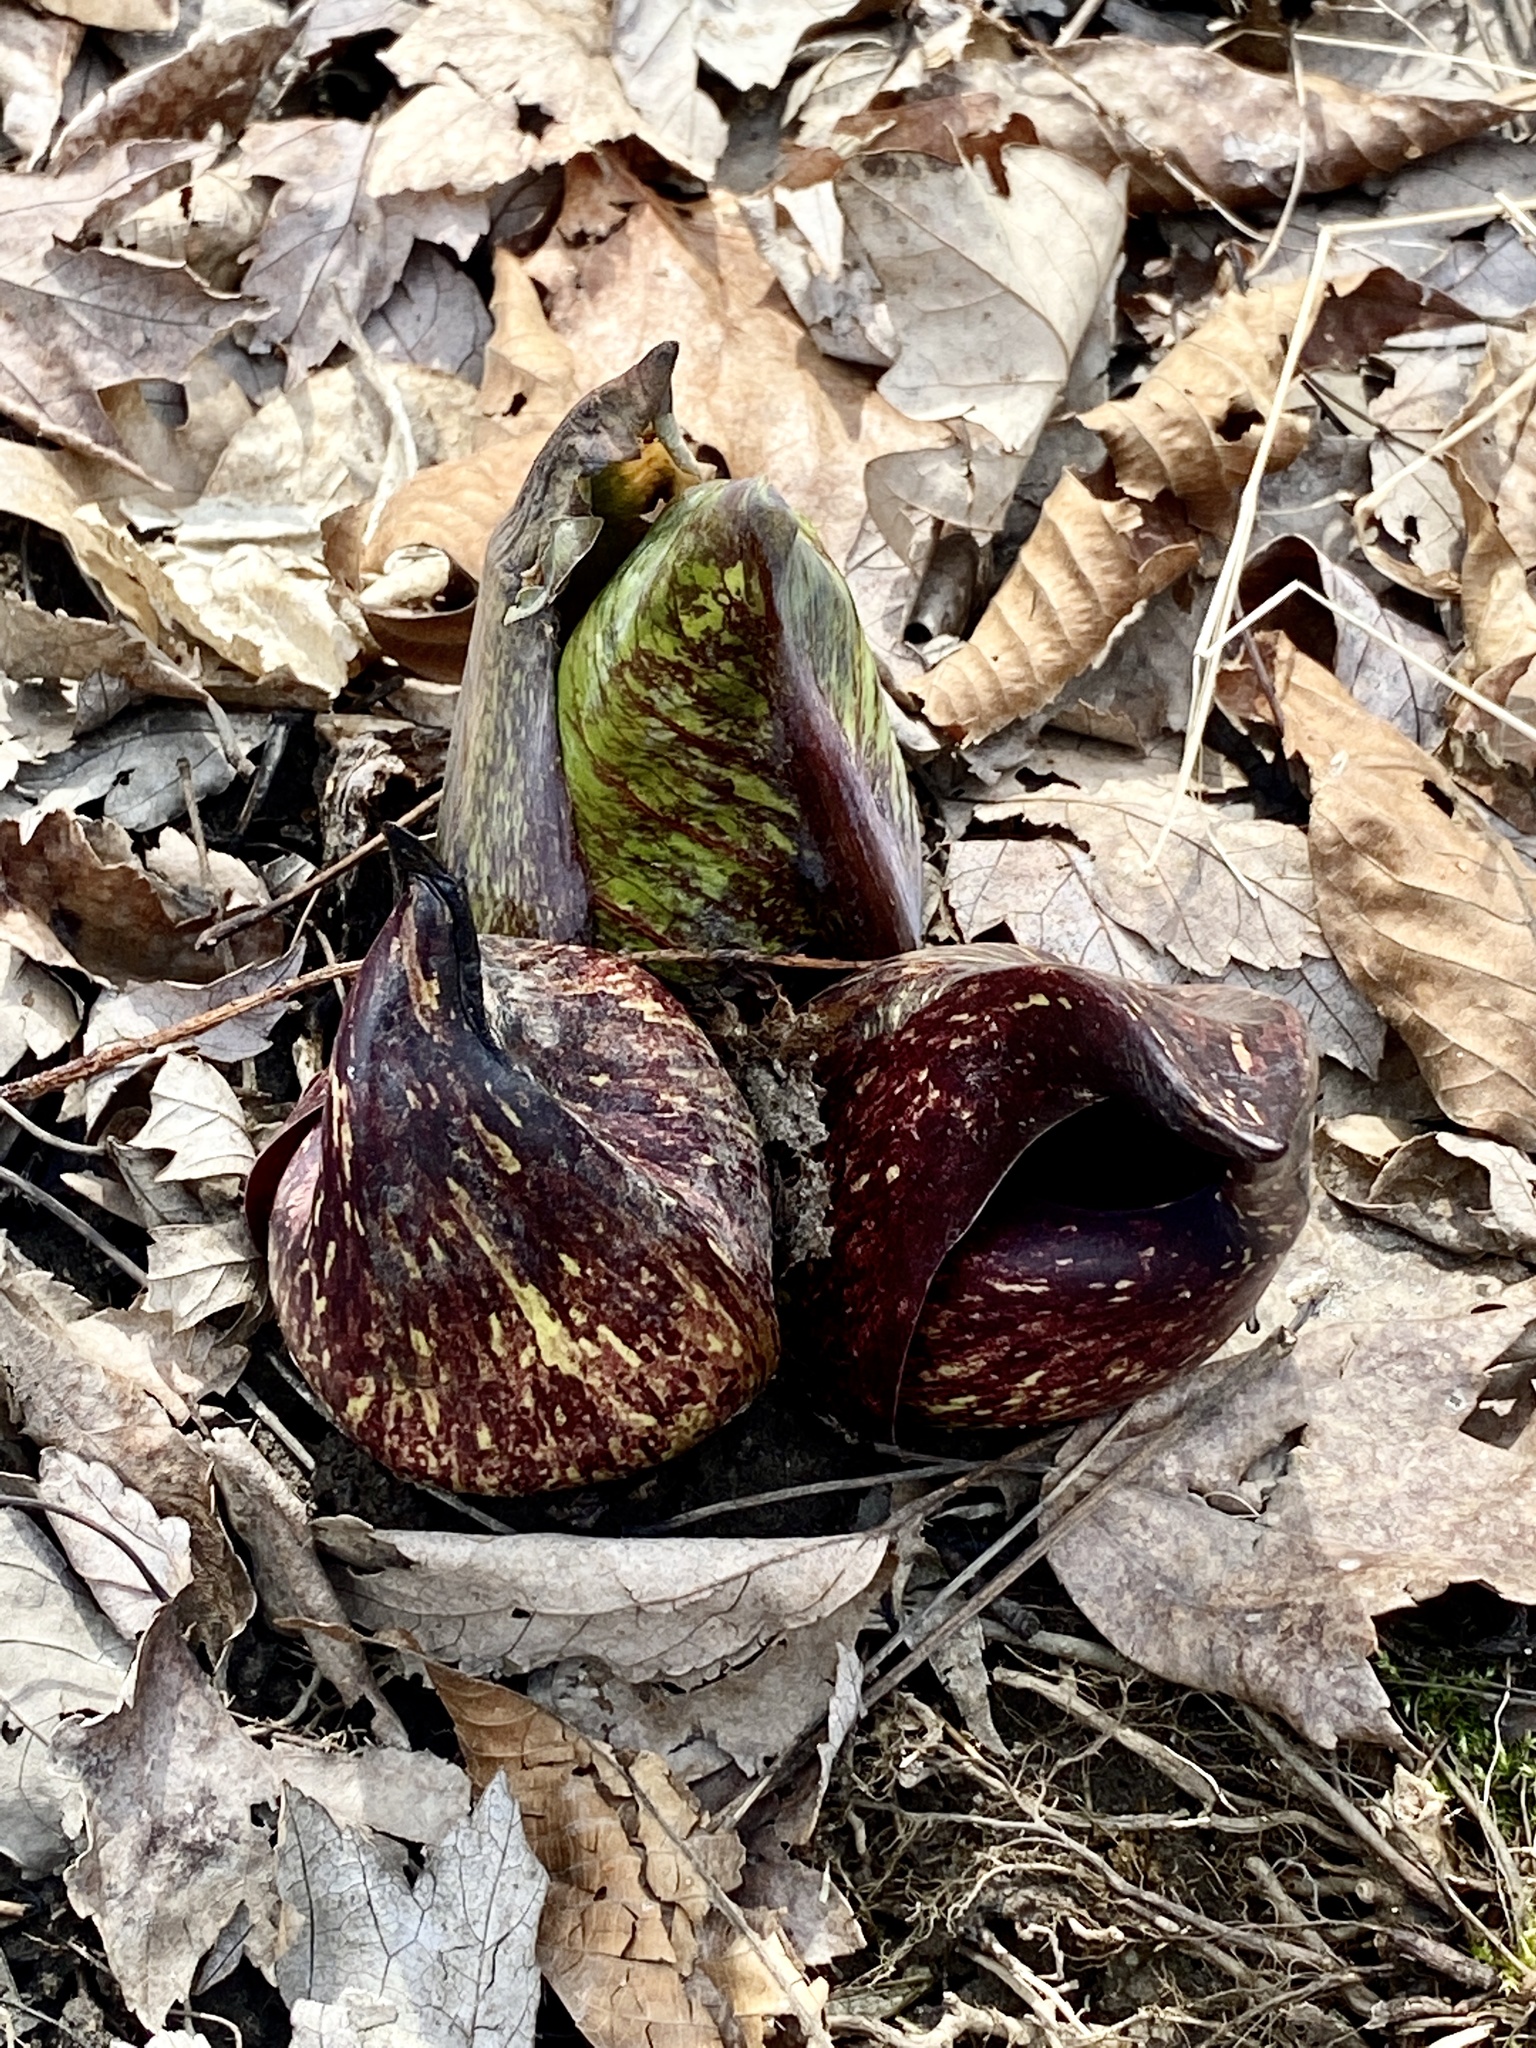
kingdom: Plantae
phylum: Tracheophyta
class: Liliopsida
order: Alismatales
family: Araceae
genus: Symplocarpus
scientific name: Symplocarpus foetidus
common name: Eastern skunk cabbage
